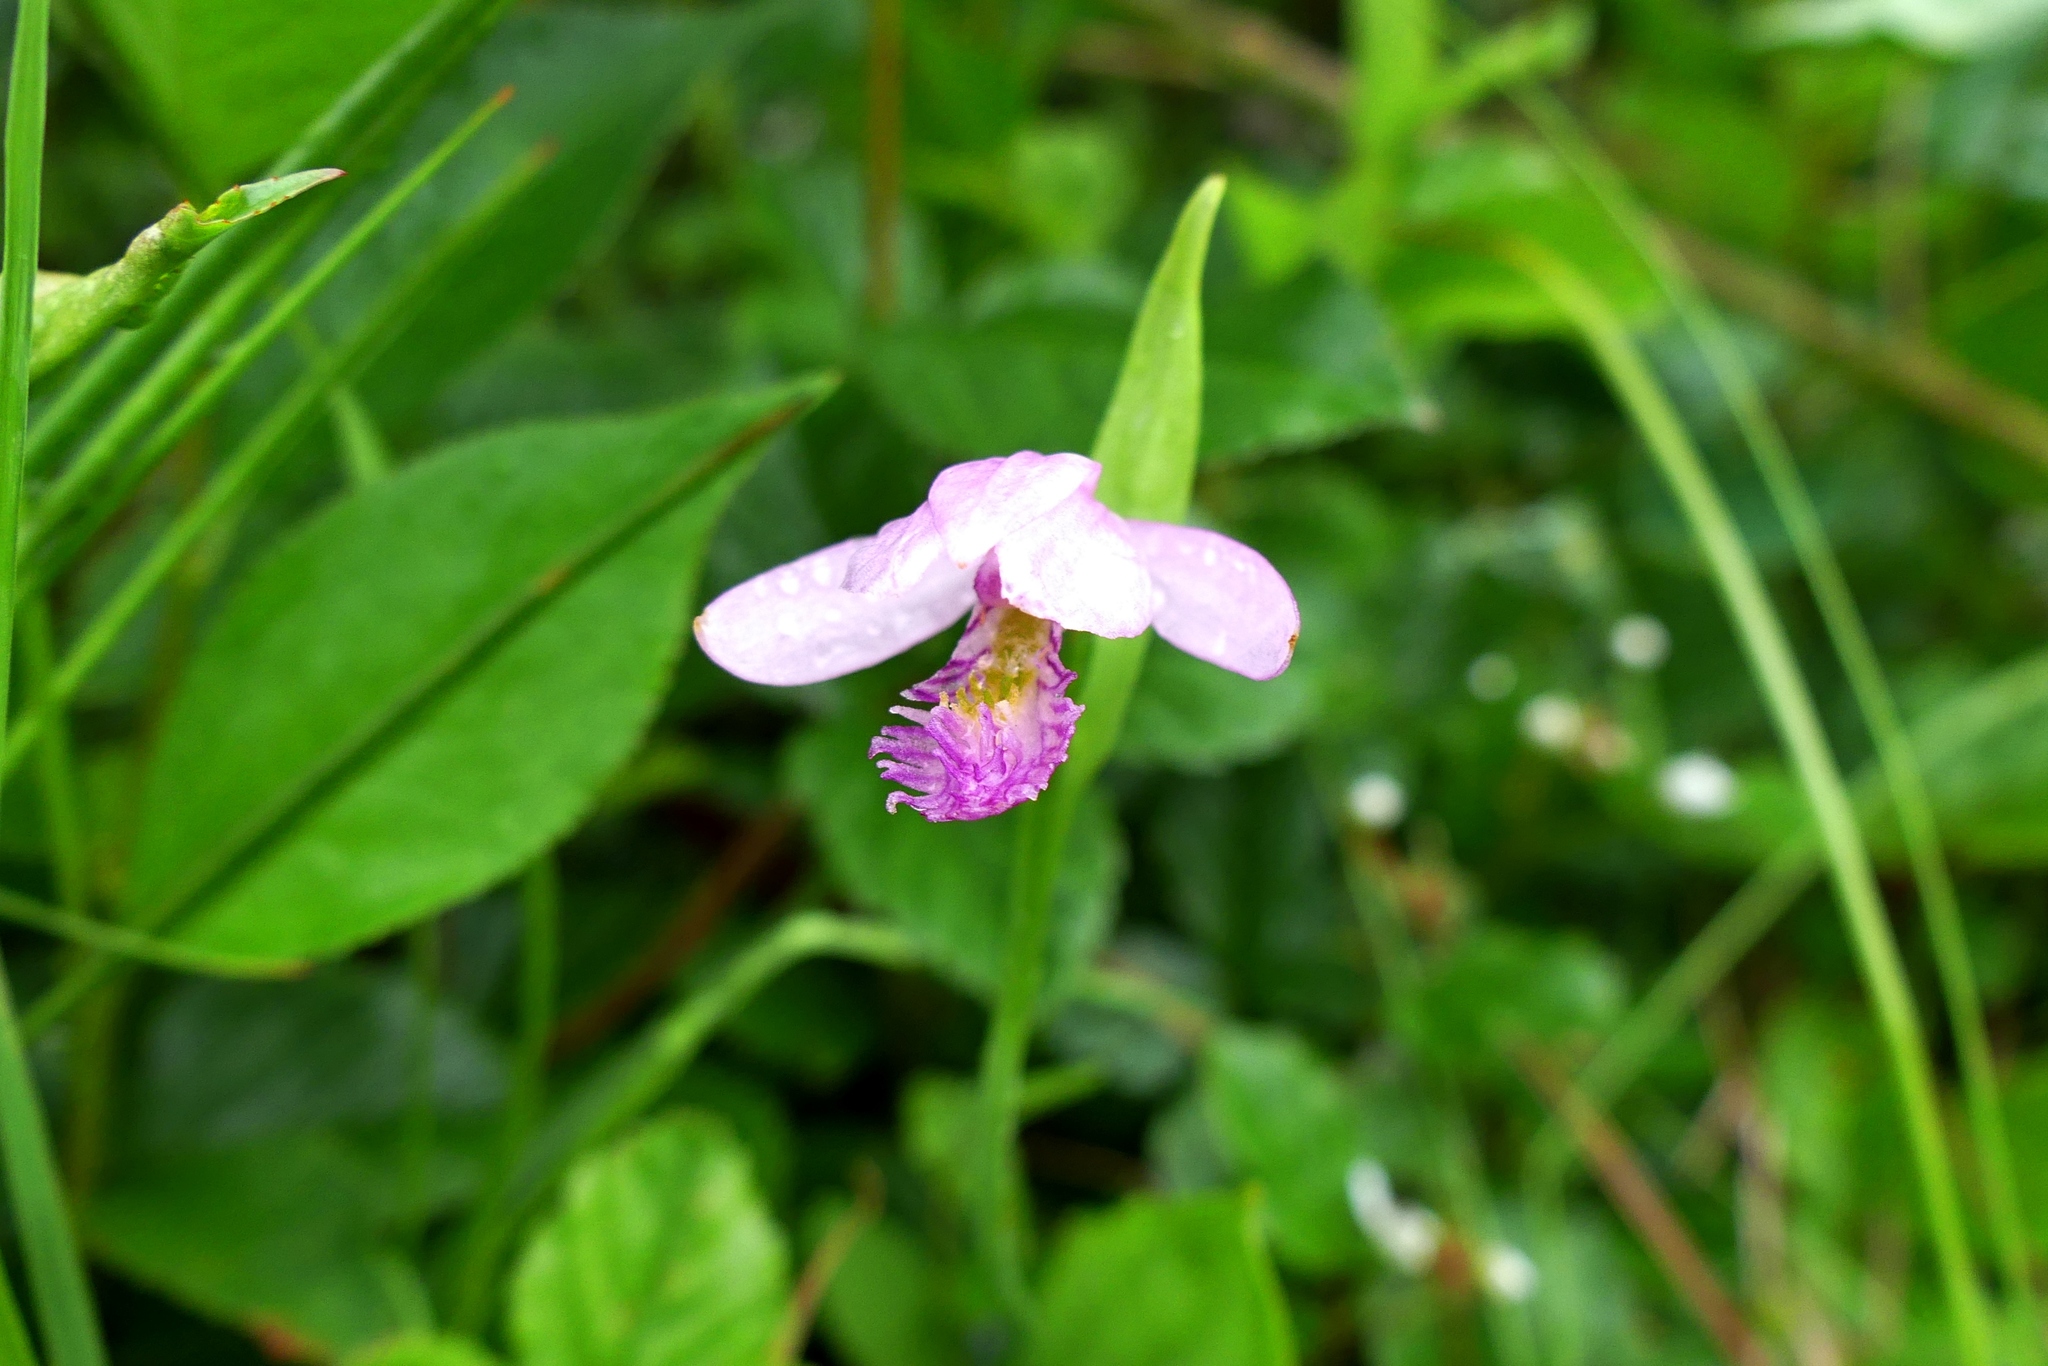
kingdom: Plantae
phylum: Tracheophyta
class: Liliopsida
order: Asparagales
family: Orchidaceae
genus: Pogonia
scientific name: Pogonia ophioglossoides
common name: Rose pogonia
